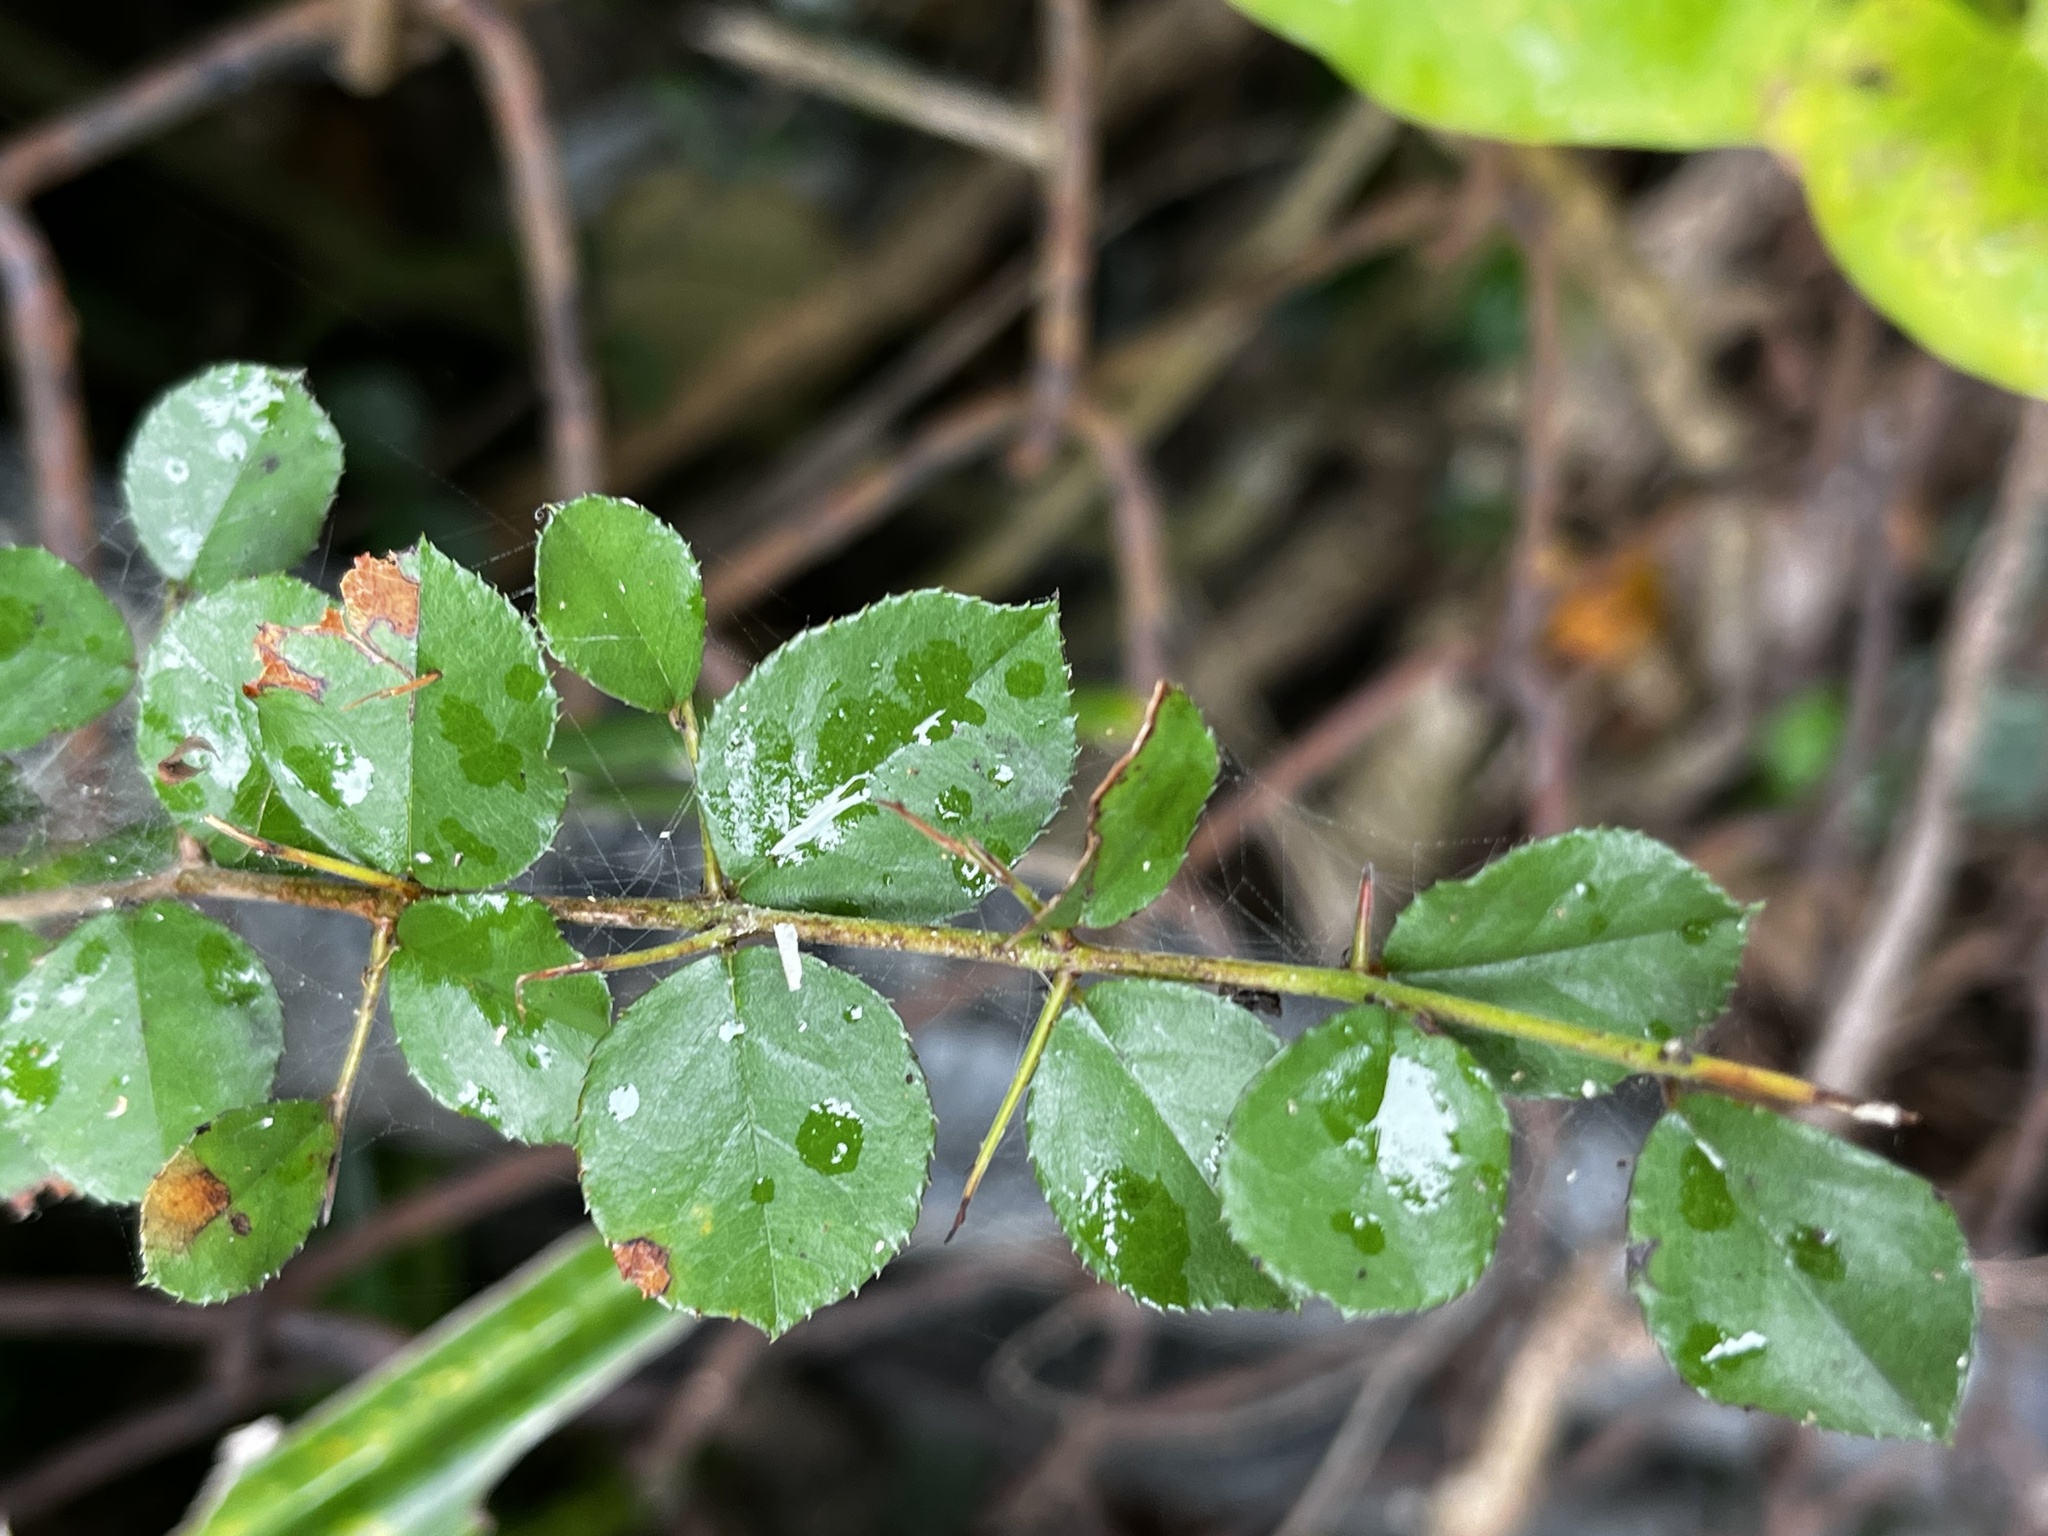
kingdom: Plantae
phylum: Tracheophyta
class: Magnoliopsida
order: Rosales
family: Rhamnaceae
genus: Sageretia
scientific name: Sageretia thea
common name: Pauper's-tea
